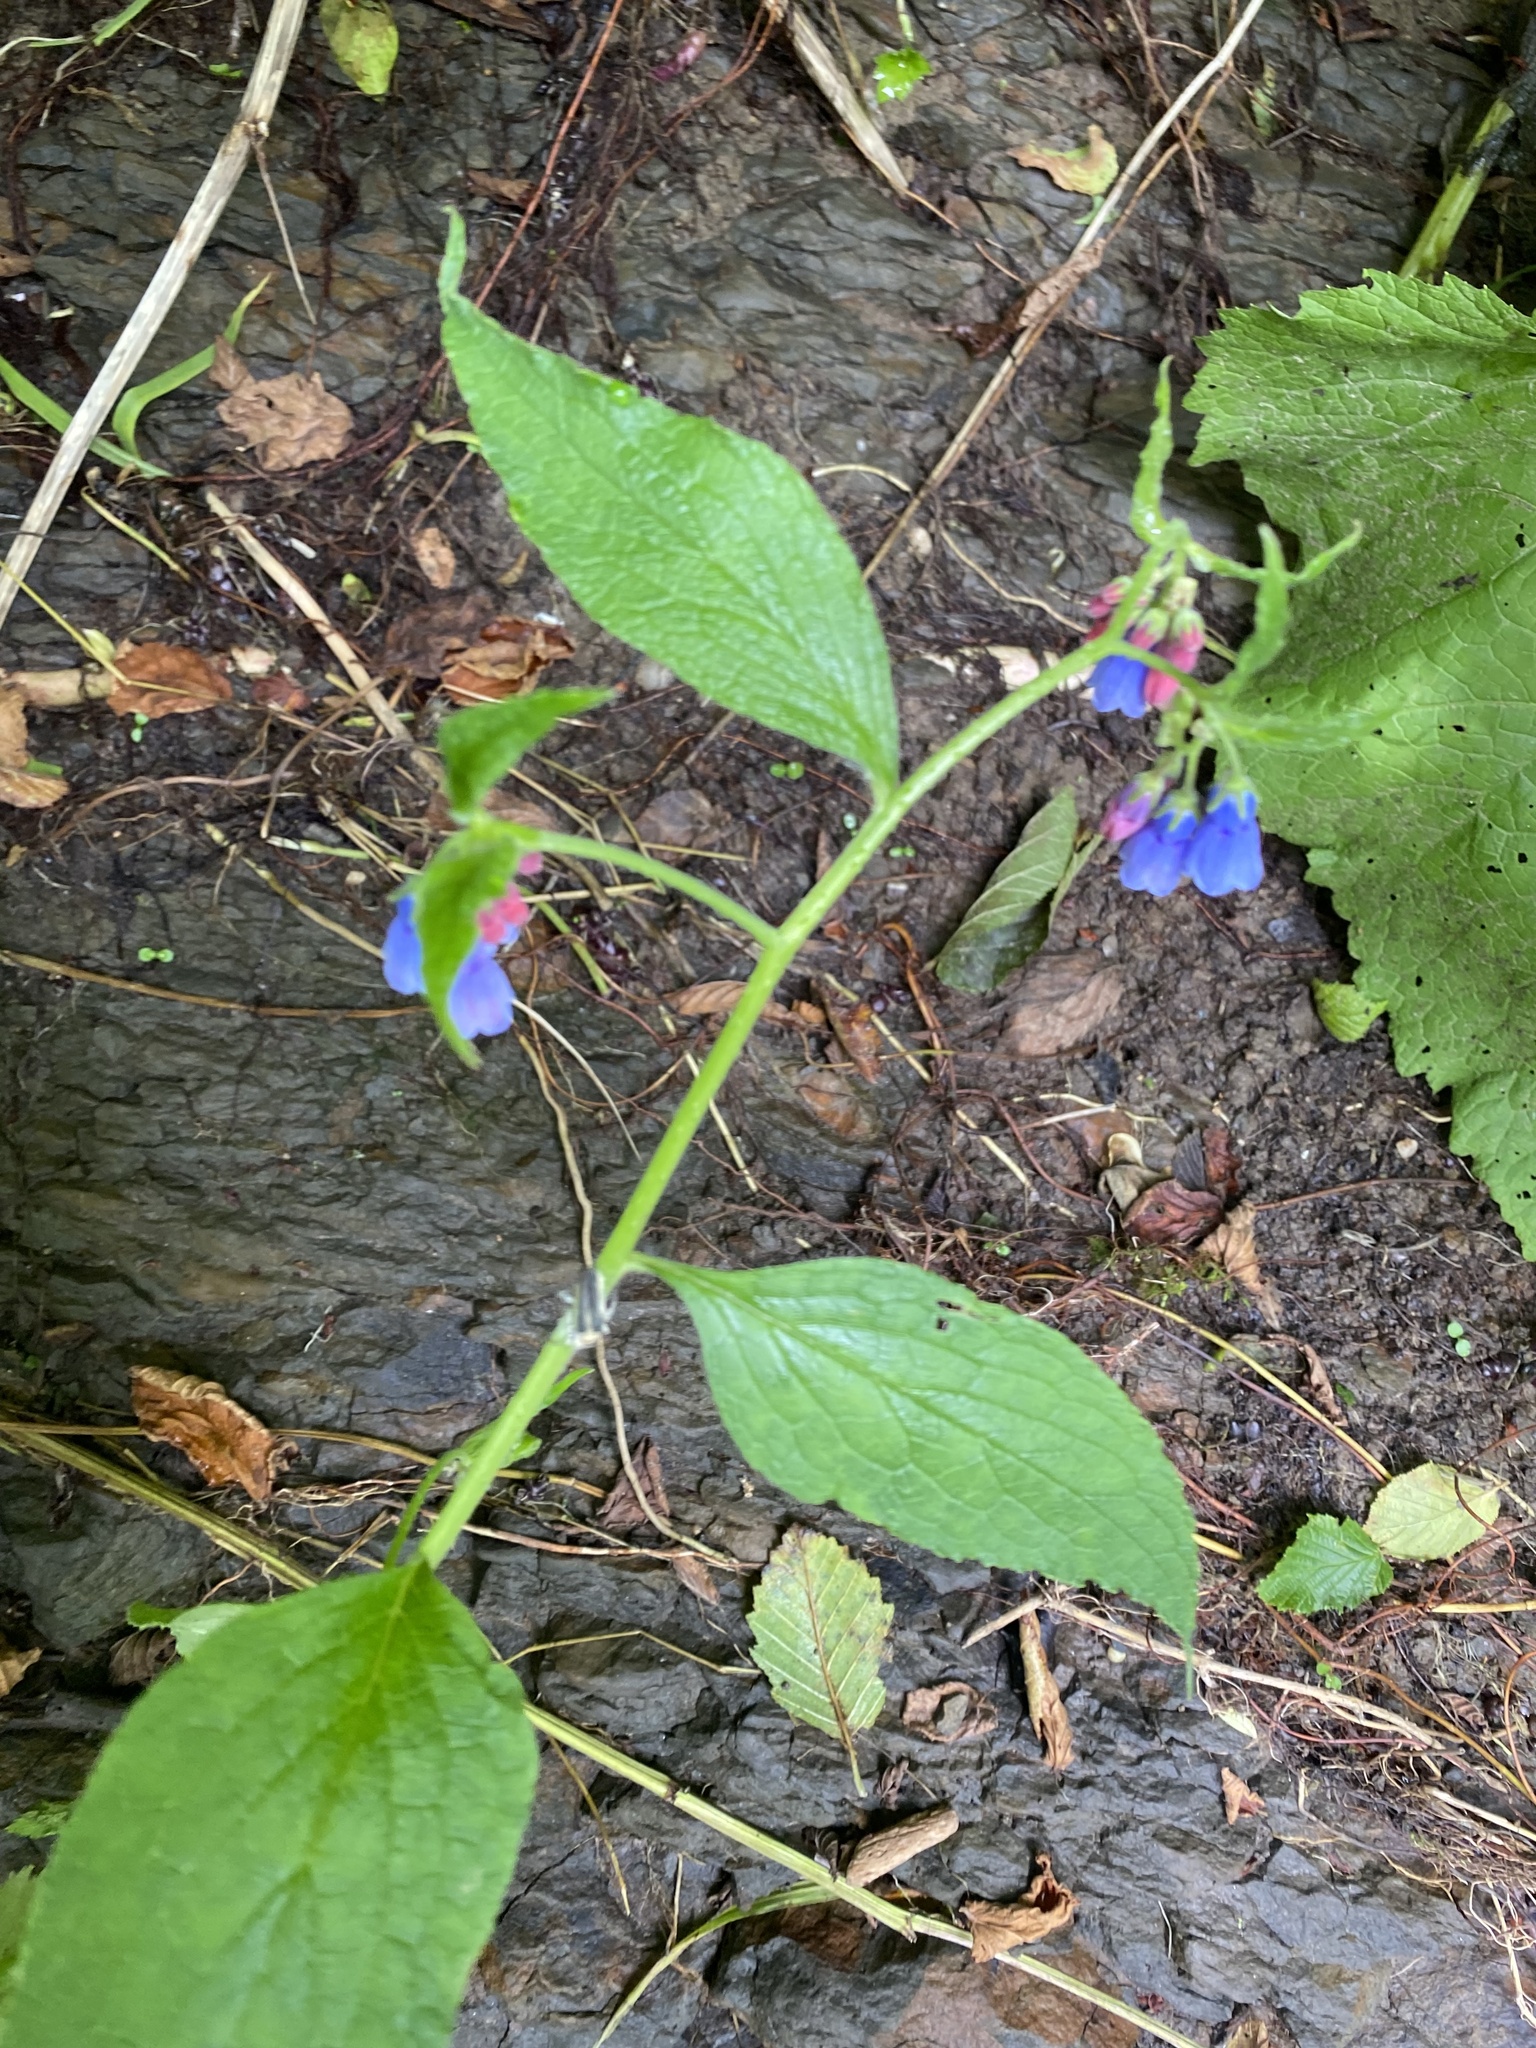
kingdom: Plantae
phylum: Tracheophyta
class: Magnoliopsida
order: Boraginales
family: Boraginaceae
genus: Symphytum
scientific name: Symphytum asperum
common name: Prickly comfrey
